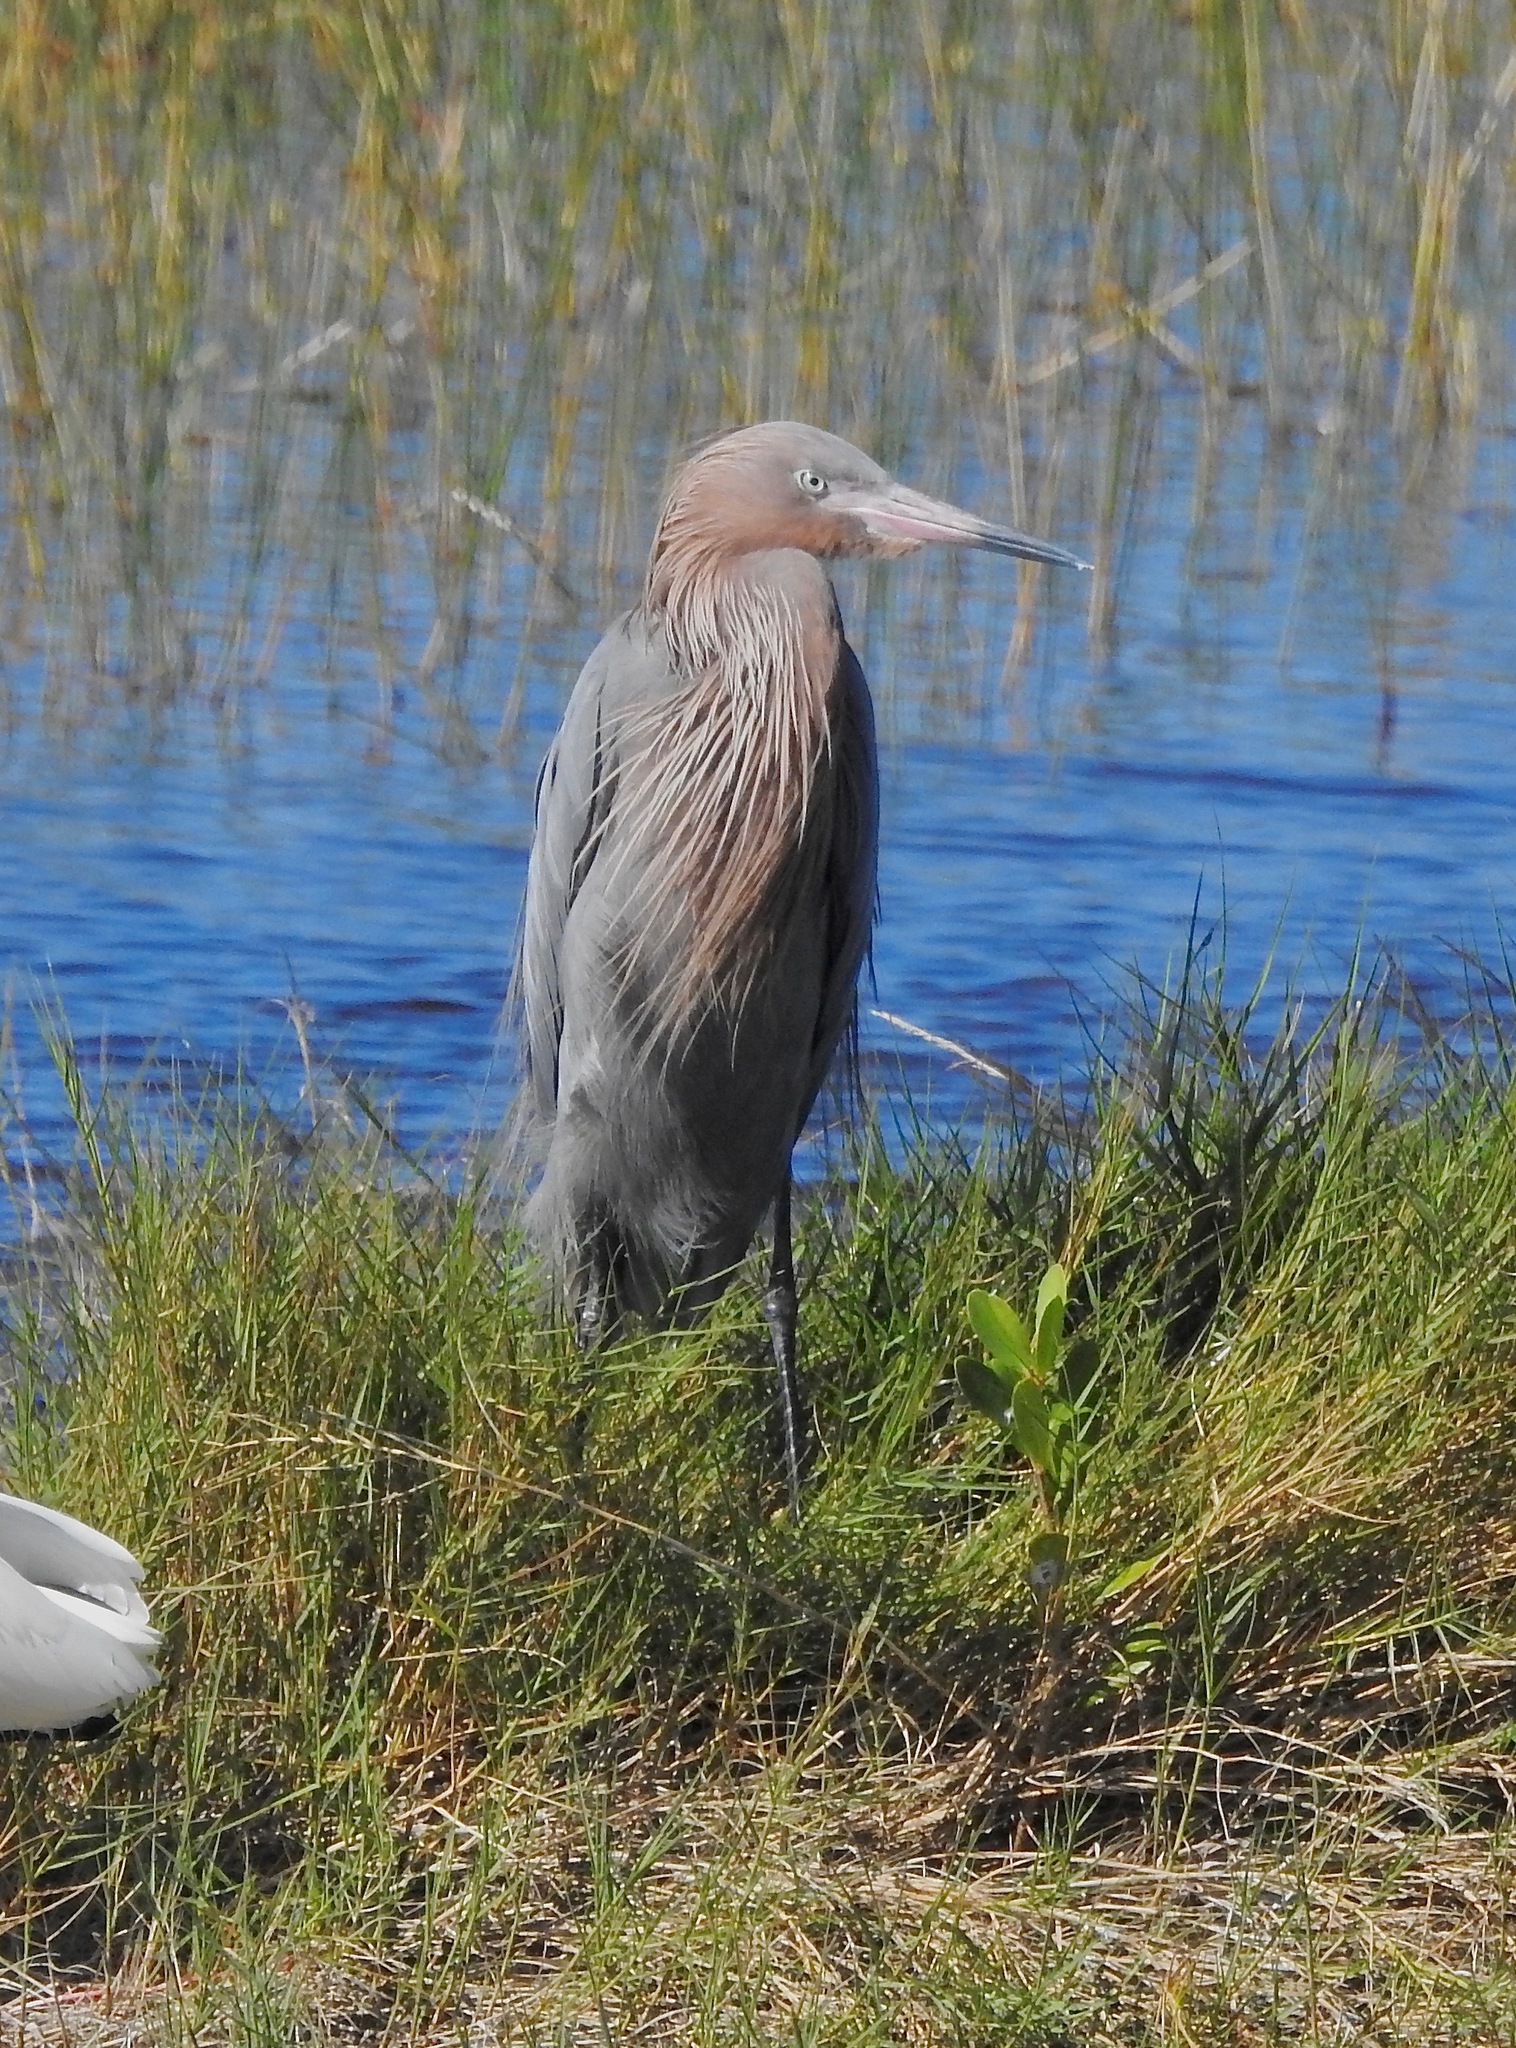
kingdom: Animalia
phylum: Chordata
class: Aves
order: Pelecaniformes
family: Ardeidae
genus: Egretta
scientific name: Egretta rufescens
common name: Reddish egret
